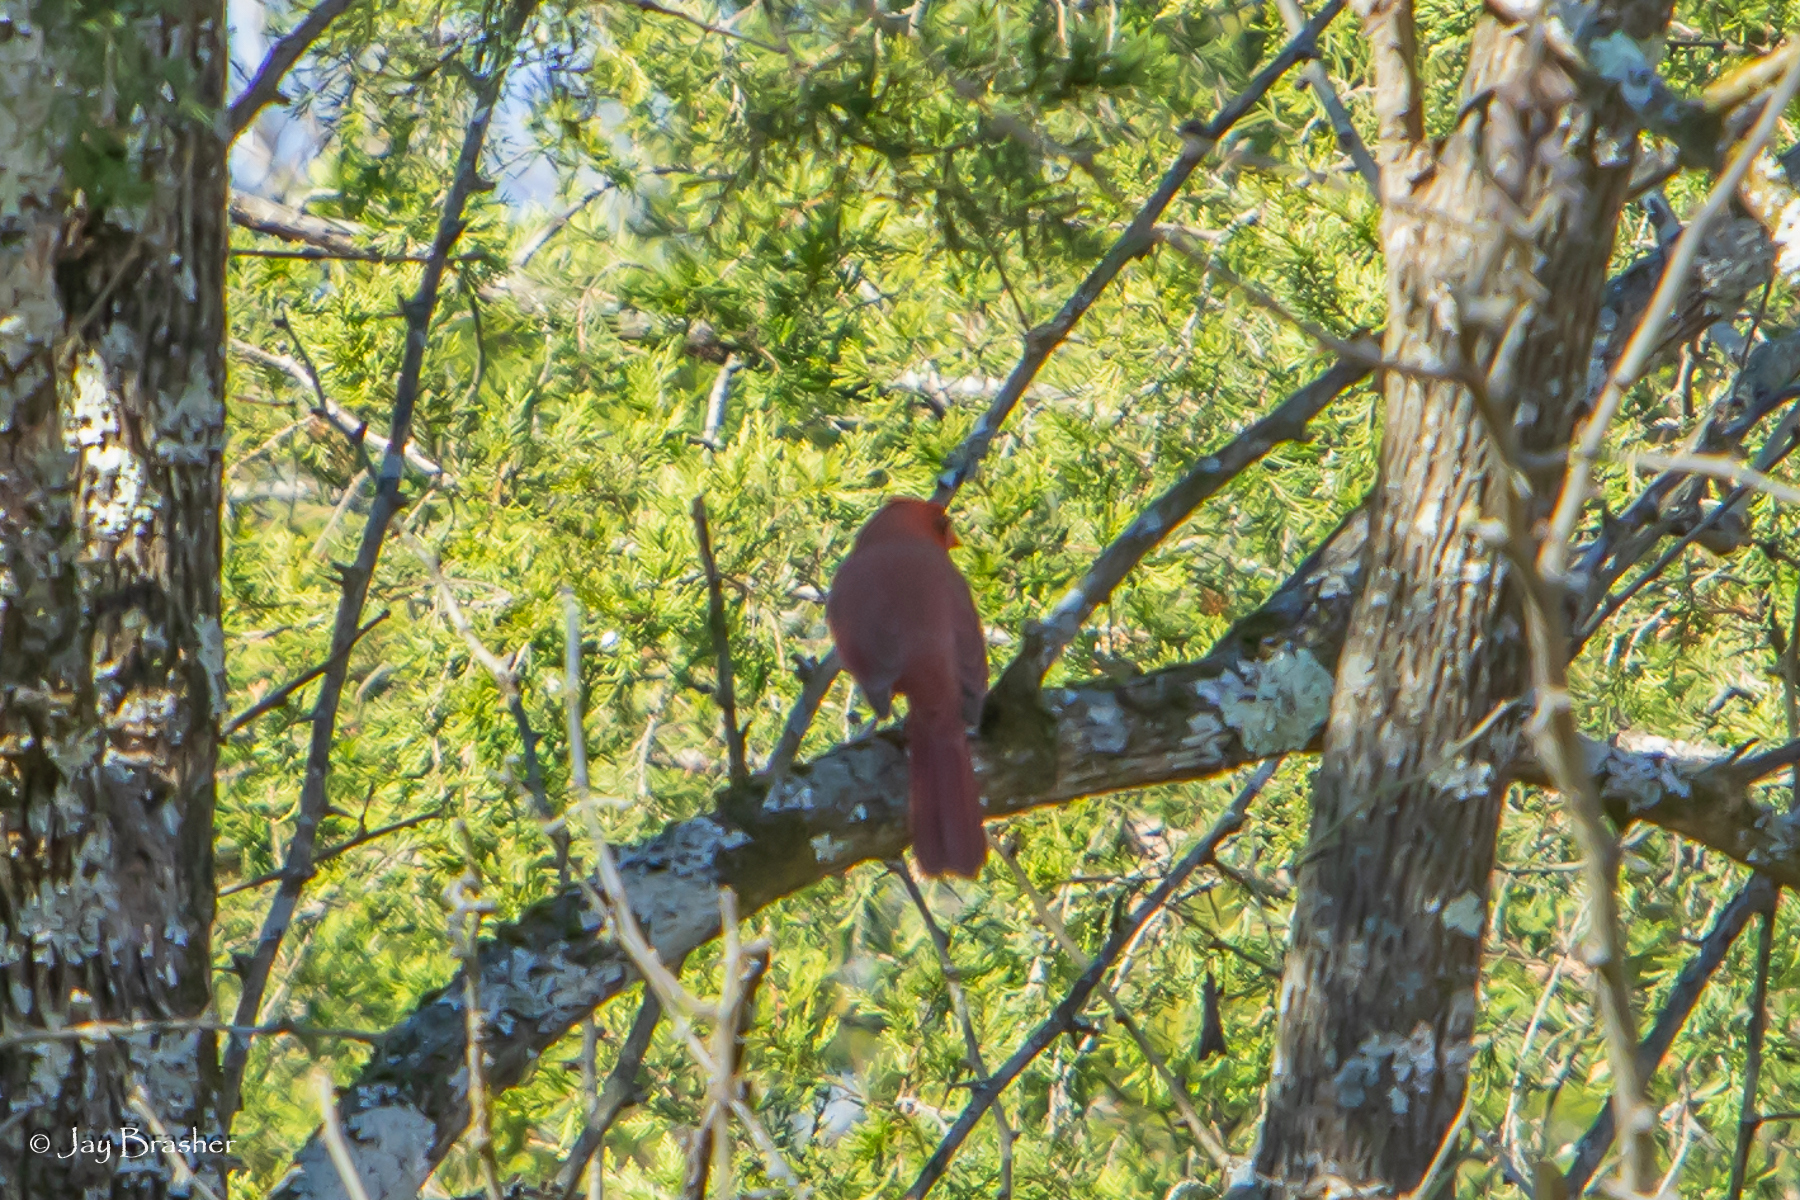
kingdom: Animalia
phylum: Chordata
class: Aves
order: Passeriformes
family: Cardinalidae
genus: Cardinalis
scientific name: Cardinalis cardinalis
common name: Northern cardinal
